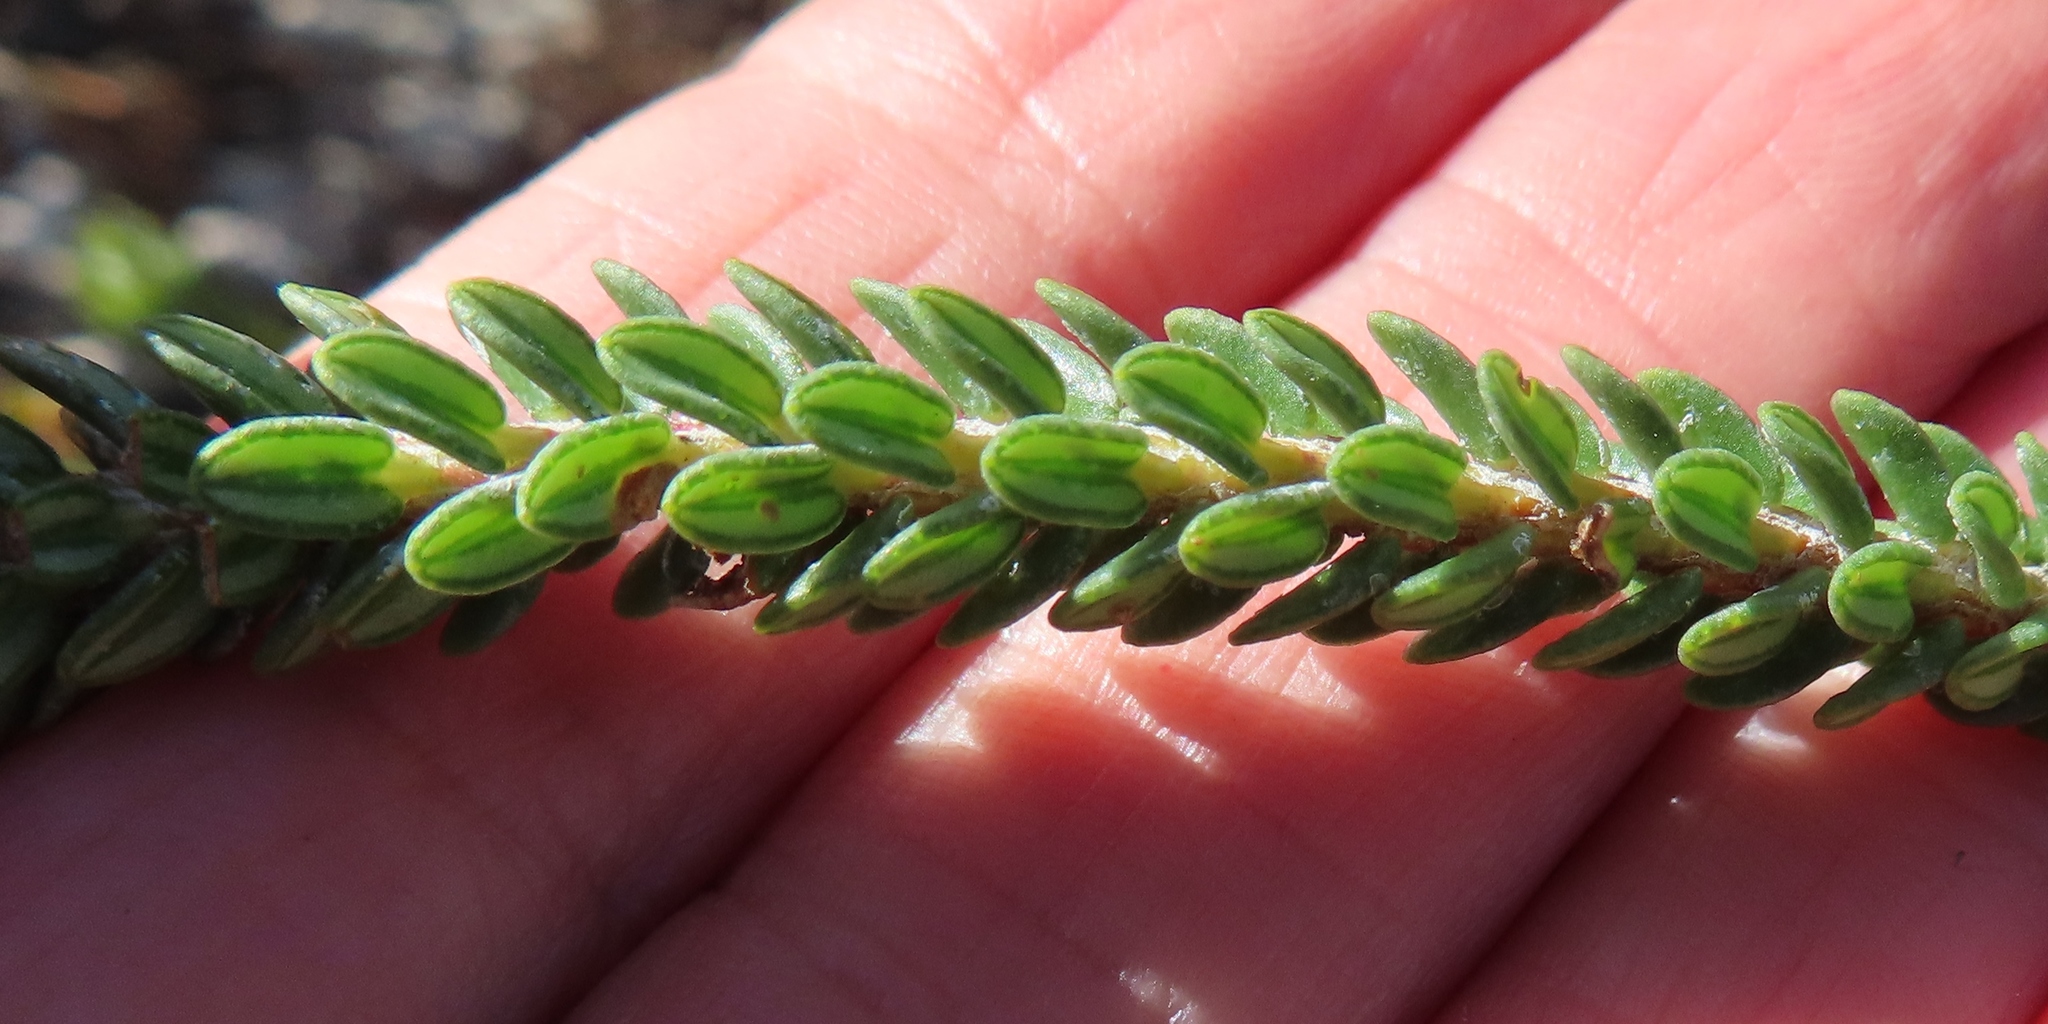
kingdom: Plantae
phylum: Tracheophyta
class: Magnoliopsida
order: Sapindales
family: Rutaceae
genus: Adenandra
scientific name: Adenandra obtusata
